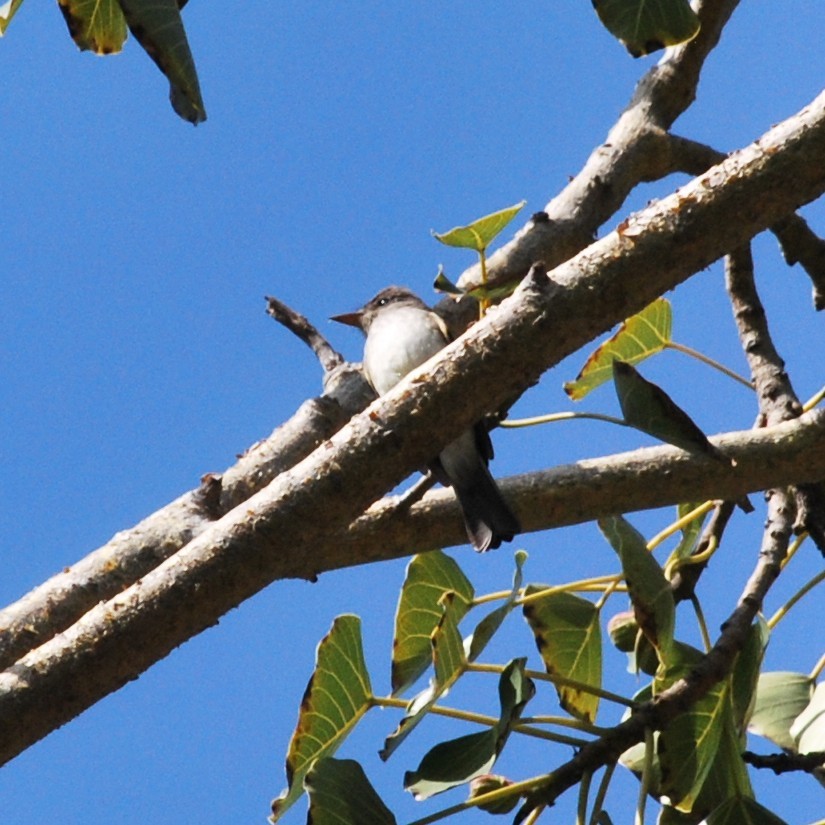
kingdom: Animalia
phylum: Chordata
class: Aves
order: Passeriformes
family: Tyrannidae
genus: Empidonax
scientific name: Empidonax traillii
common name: Willow flycatcher
